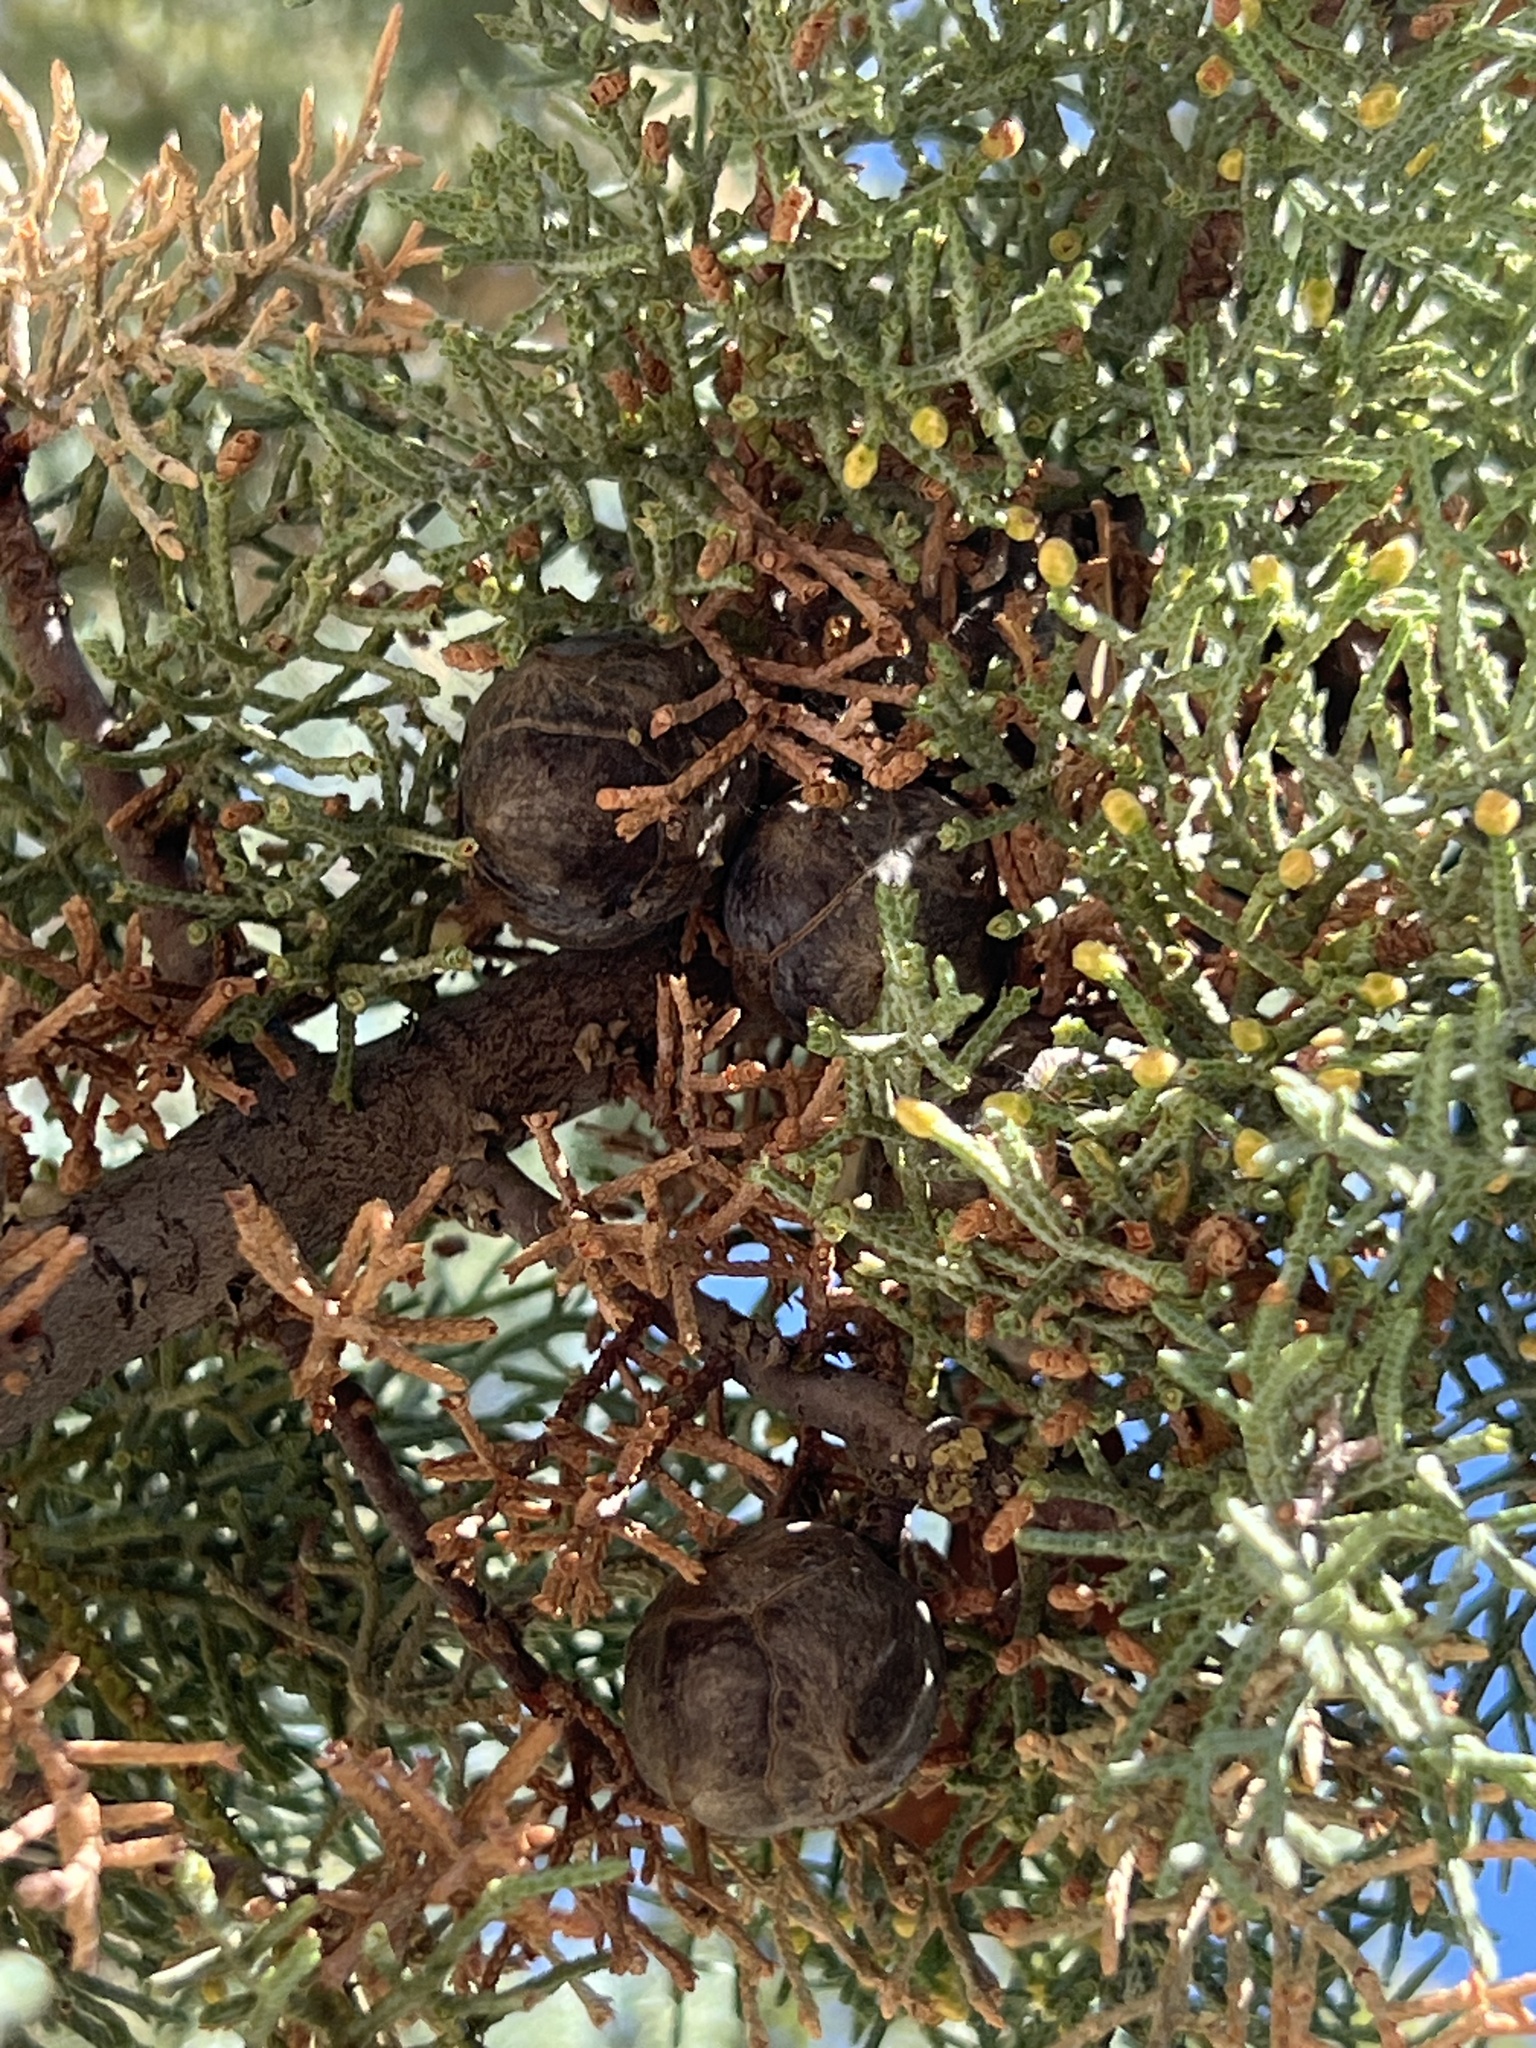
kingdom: Plantae
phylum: Tracheophyta
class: Pinopsida
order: Pinales
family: Cupressaceae
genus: Cupressus
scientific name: Cupressus arizonica
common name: Arizona cypress
